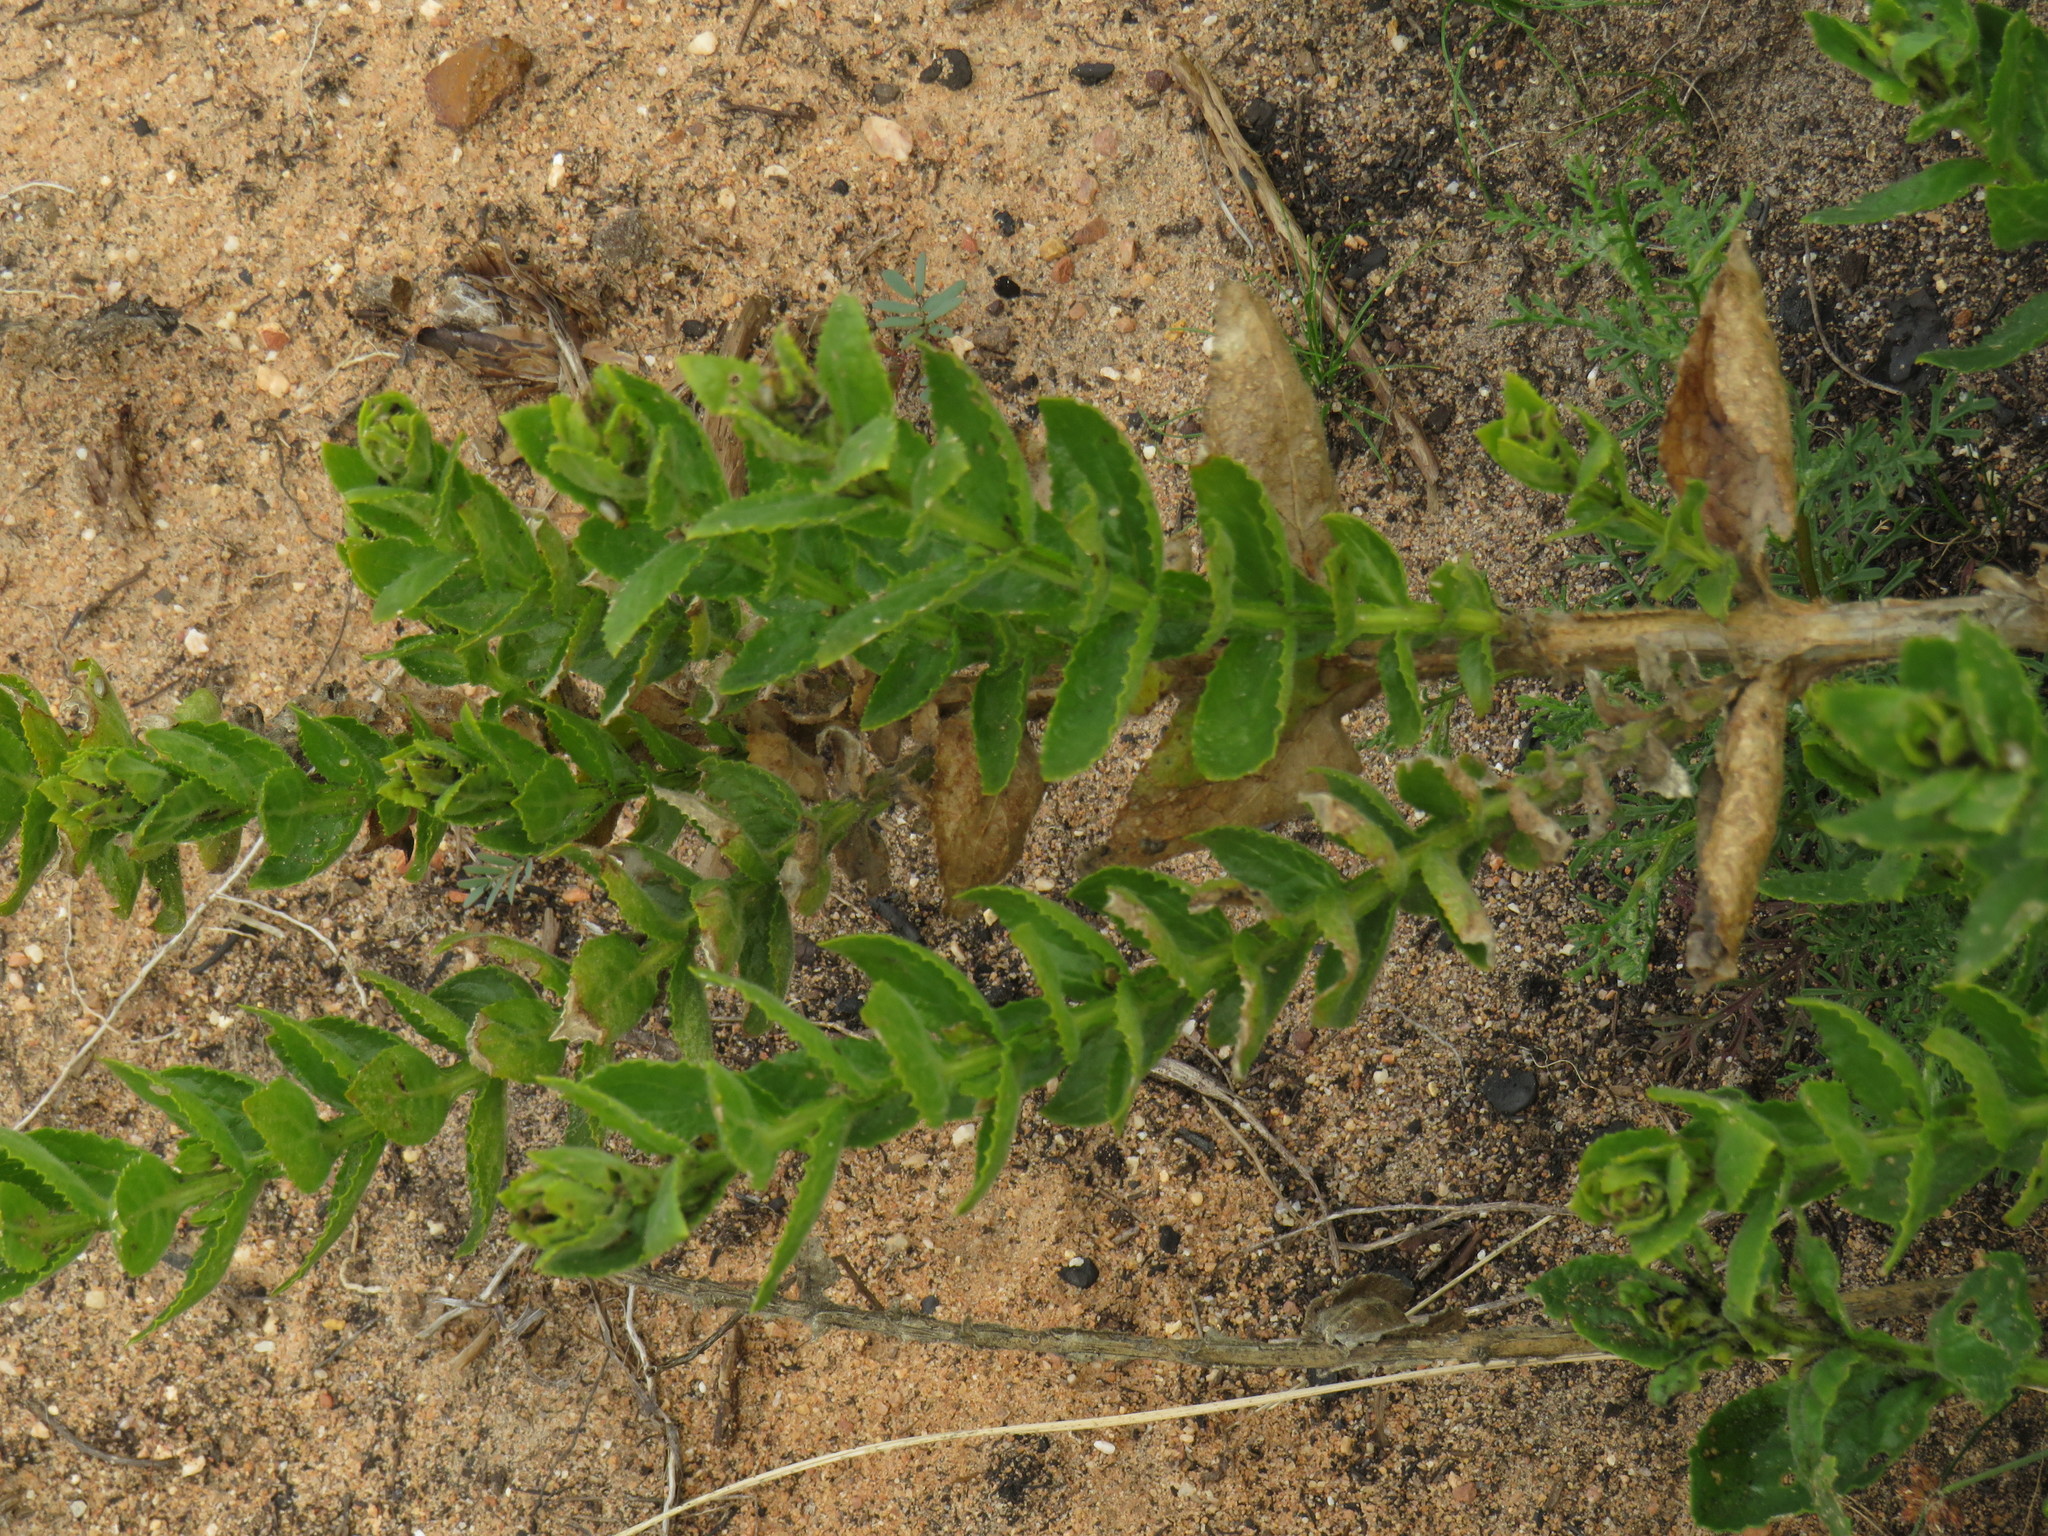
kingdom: Plantae
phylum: Tracheophyta
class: Magnoliopsida
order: Lamiales
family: Scrophulariaceae
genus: Oftia
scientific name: Oftia africana
